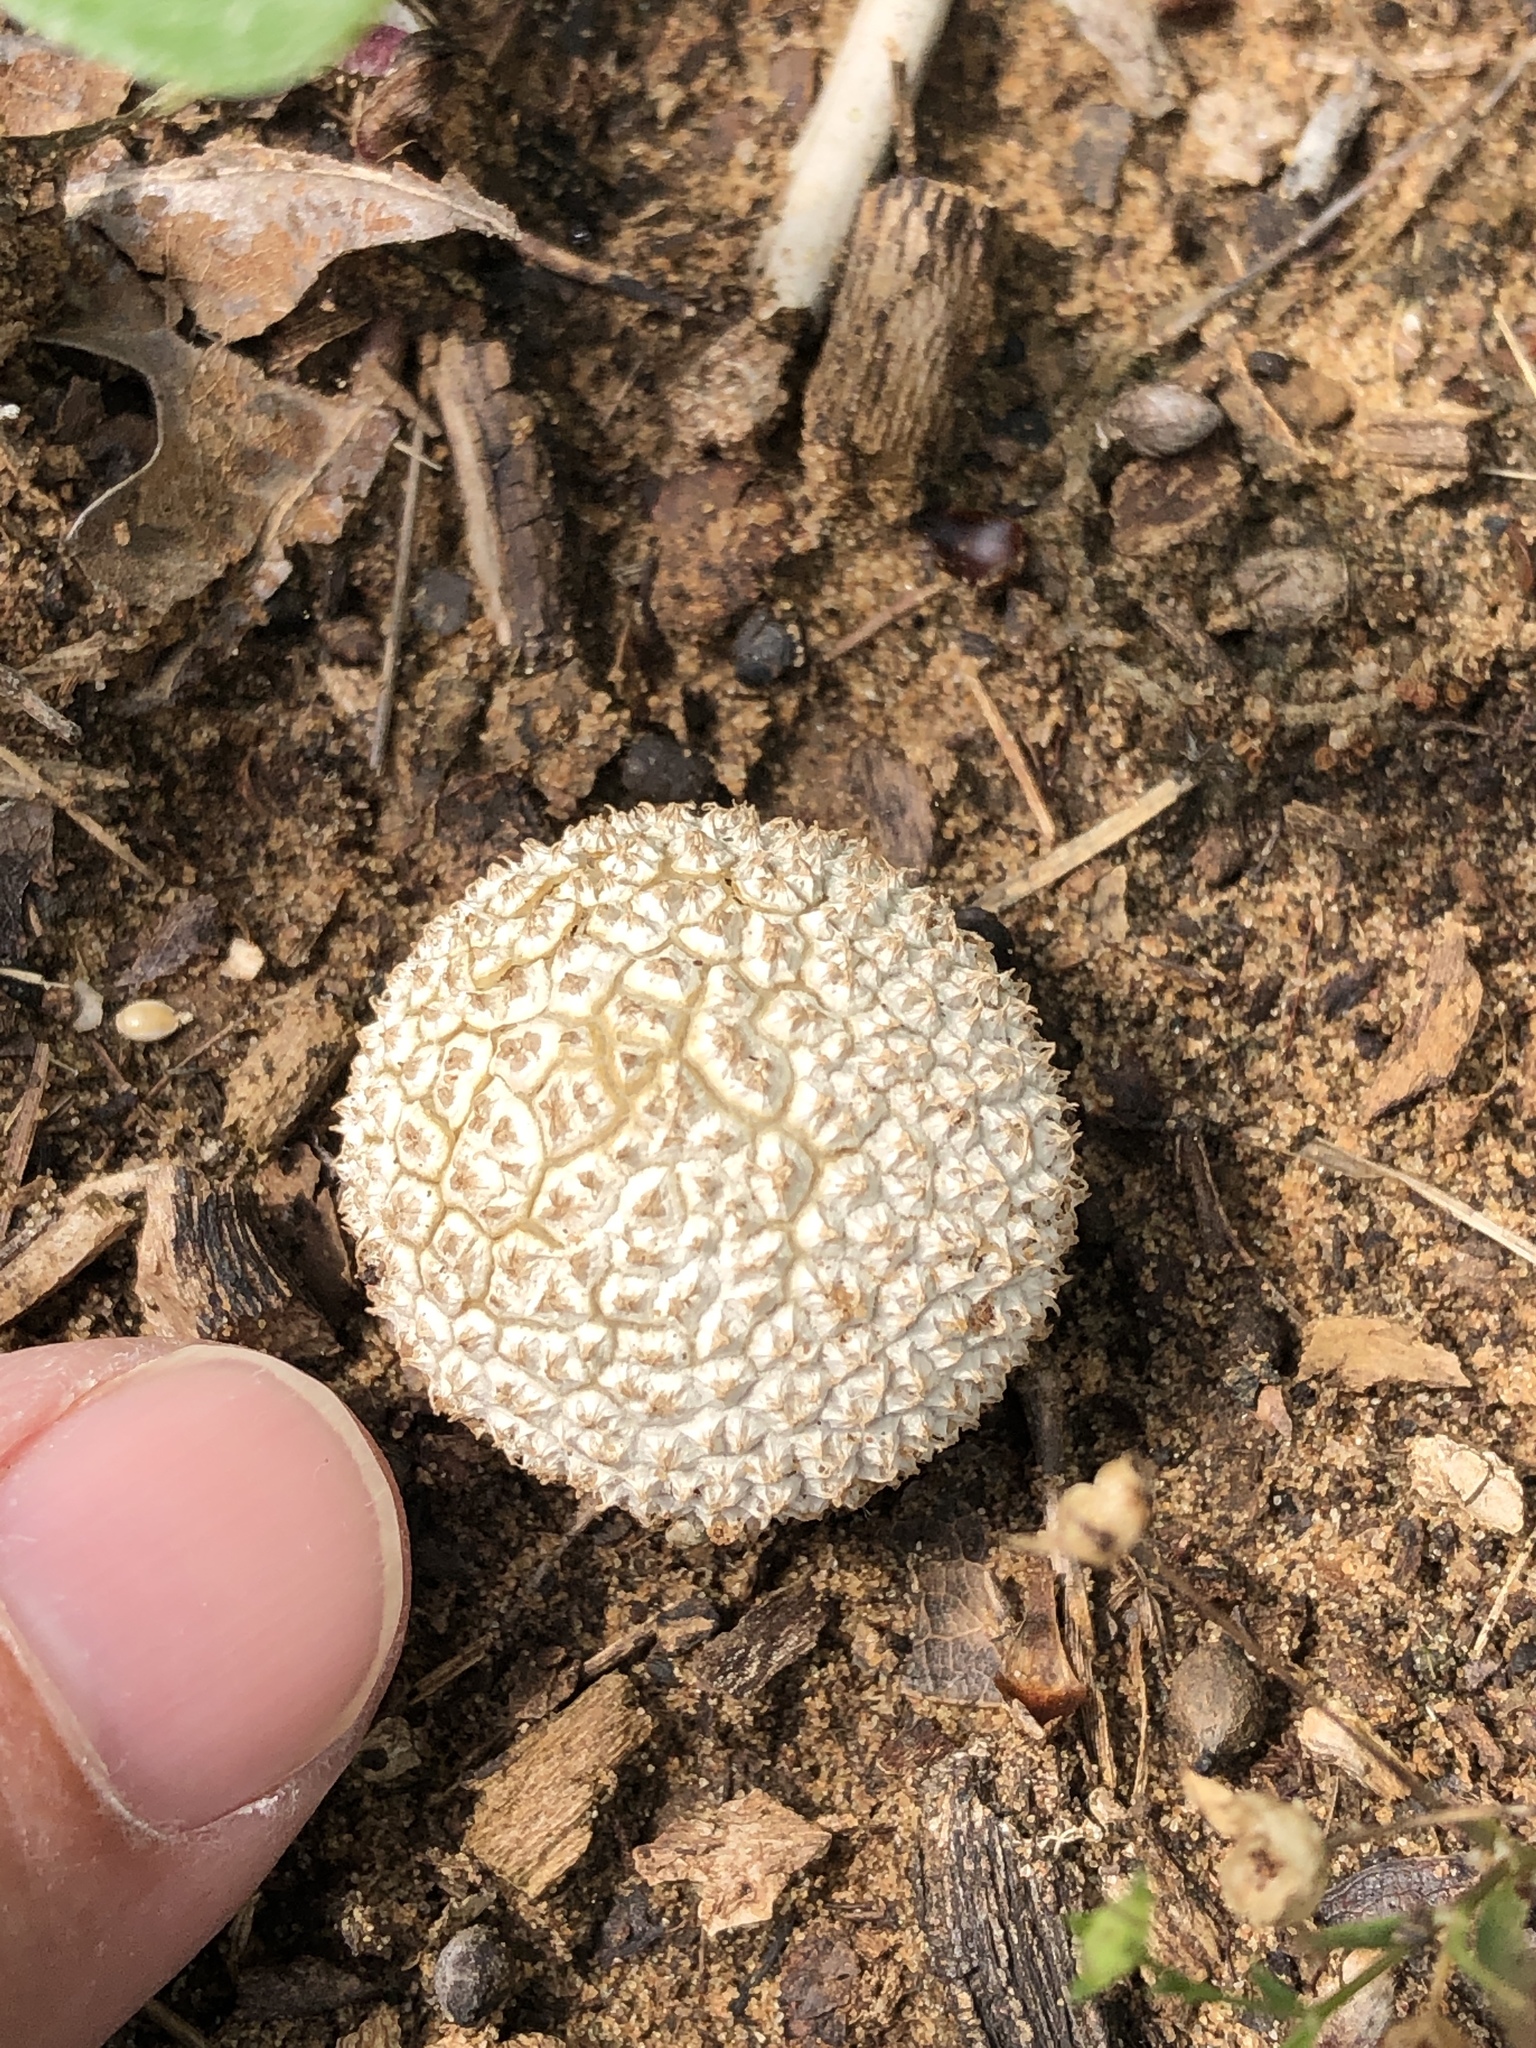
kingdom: Fungi
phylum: Basidiomycota
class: Agaricomycetes
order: Agaricales
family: Agaricaceae
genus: Lycoperdon
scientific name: Lycoperdon marginatum
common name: Peeling puffball
